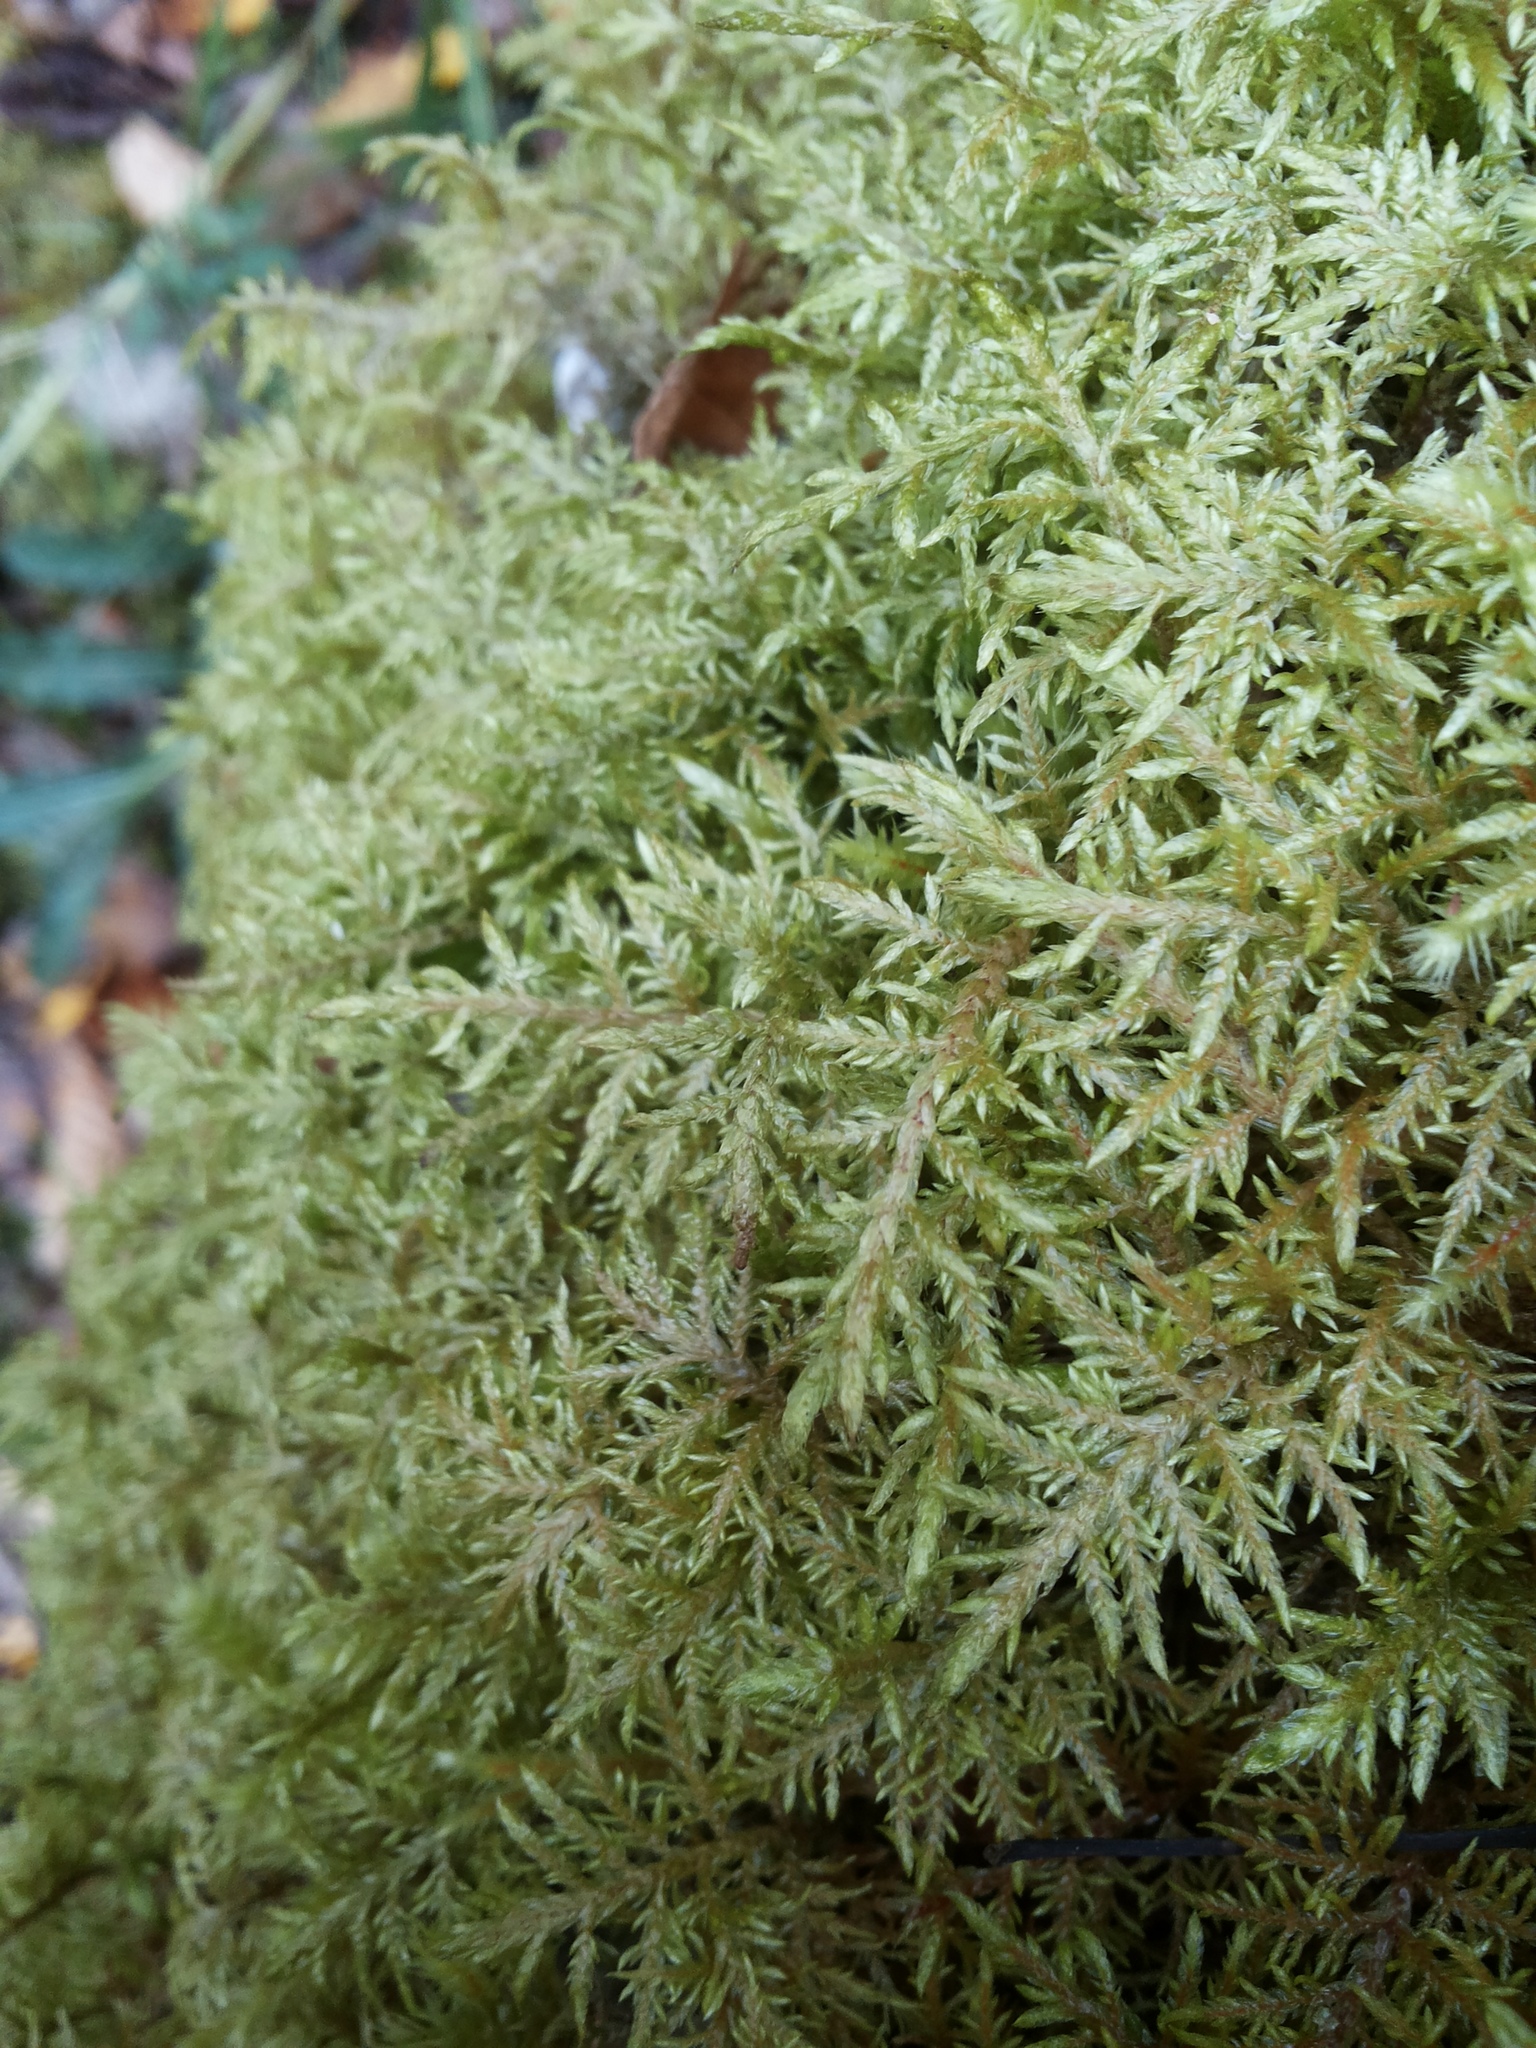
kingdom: Plantae
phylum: Bryophyta
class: Bryopsida
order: Hypnales
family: Hylocomiaceae
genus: Hylocomium
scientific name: Hylocomium splendens
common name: Stairstep moss
